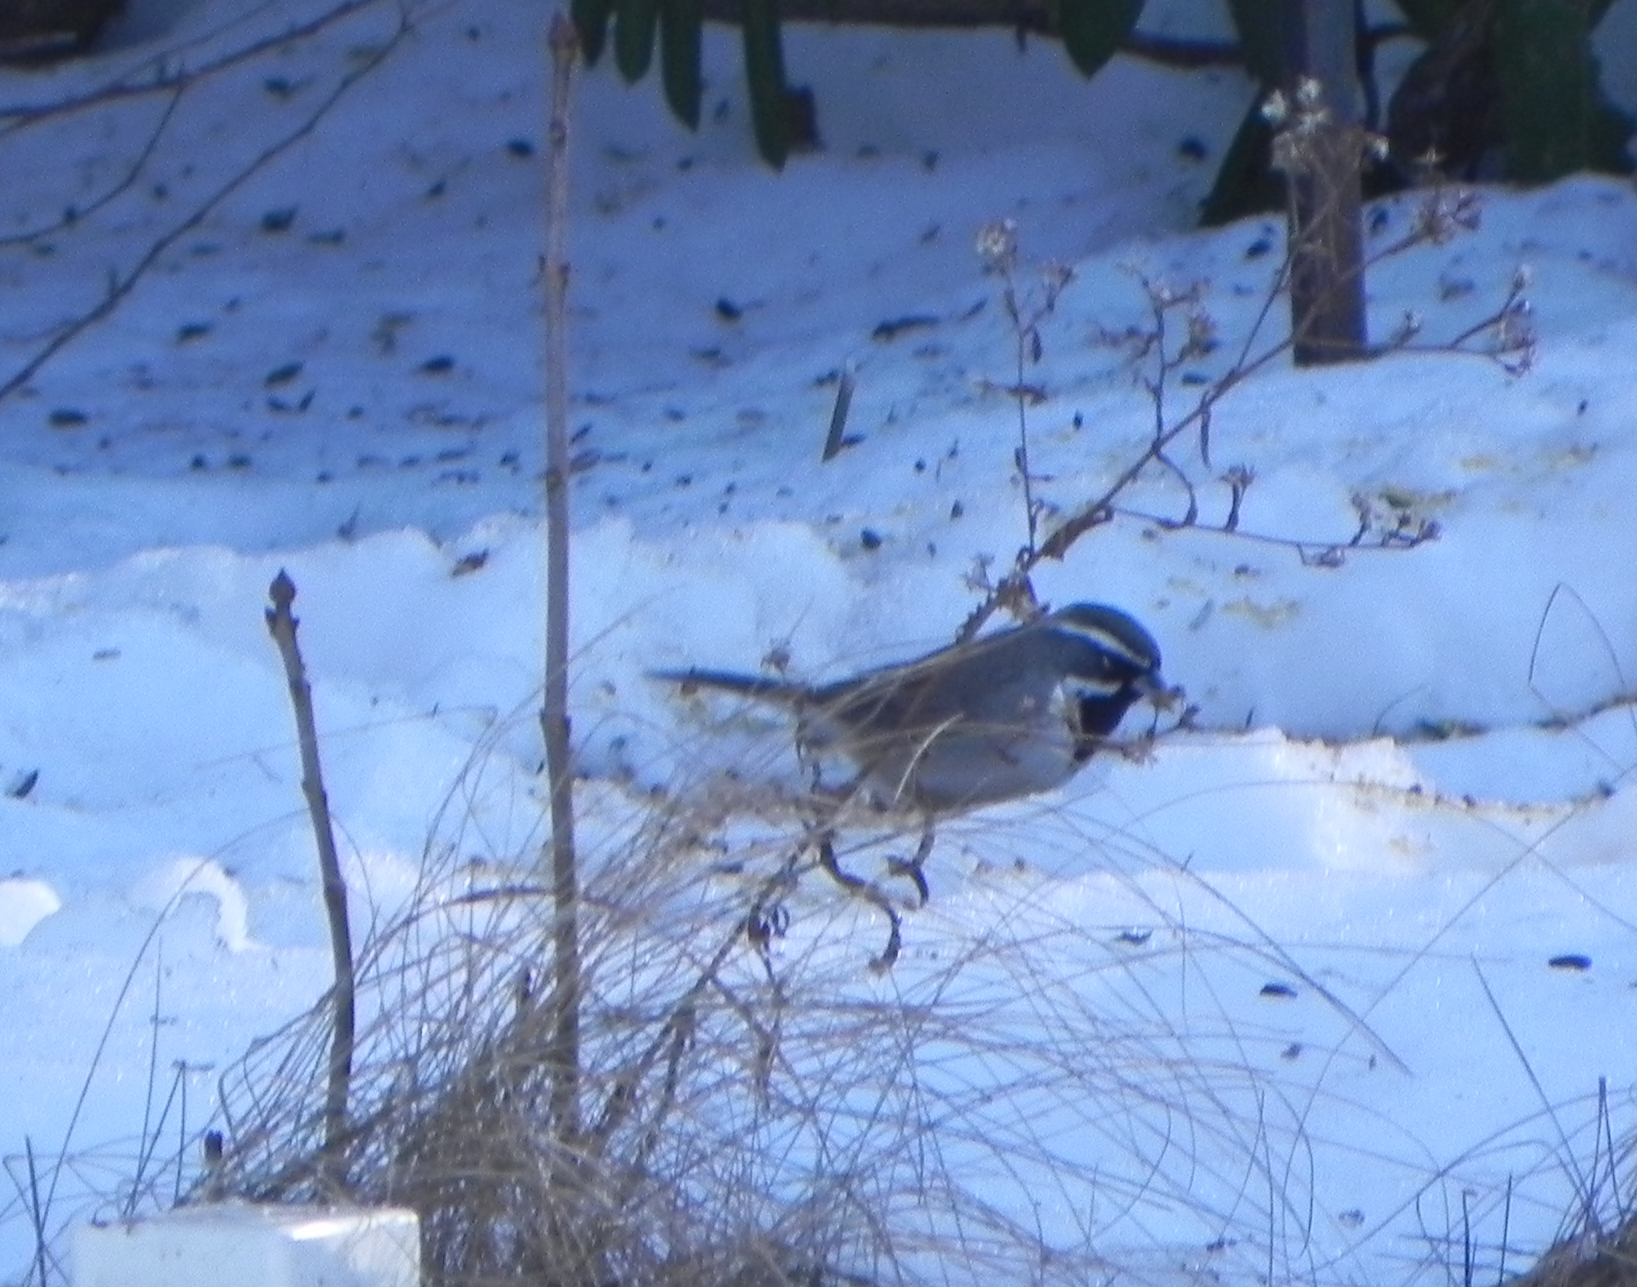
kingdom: Animalia
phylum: Chordata
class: Aves
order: Passeriformes
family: Passerellidae
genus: Amphispiza
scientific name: Amphispiza bilineata
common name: Black-throated sparrow
